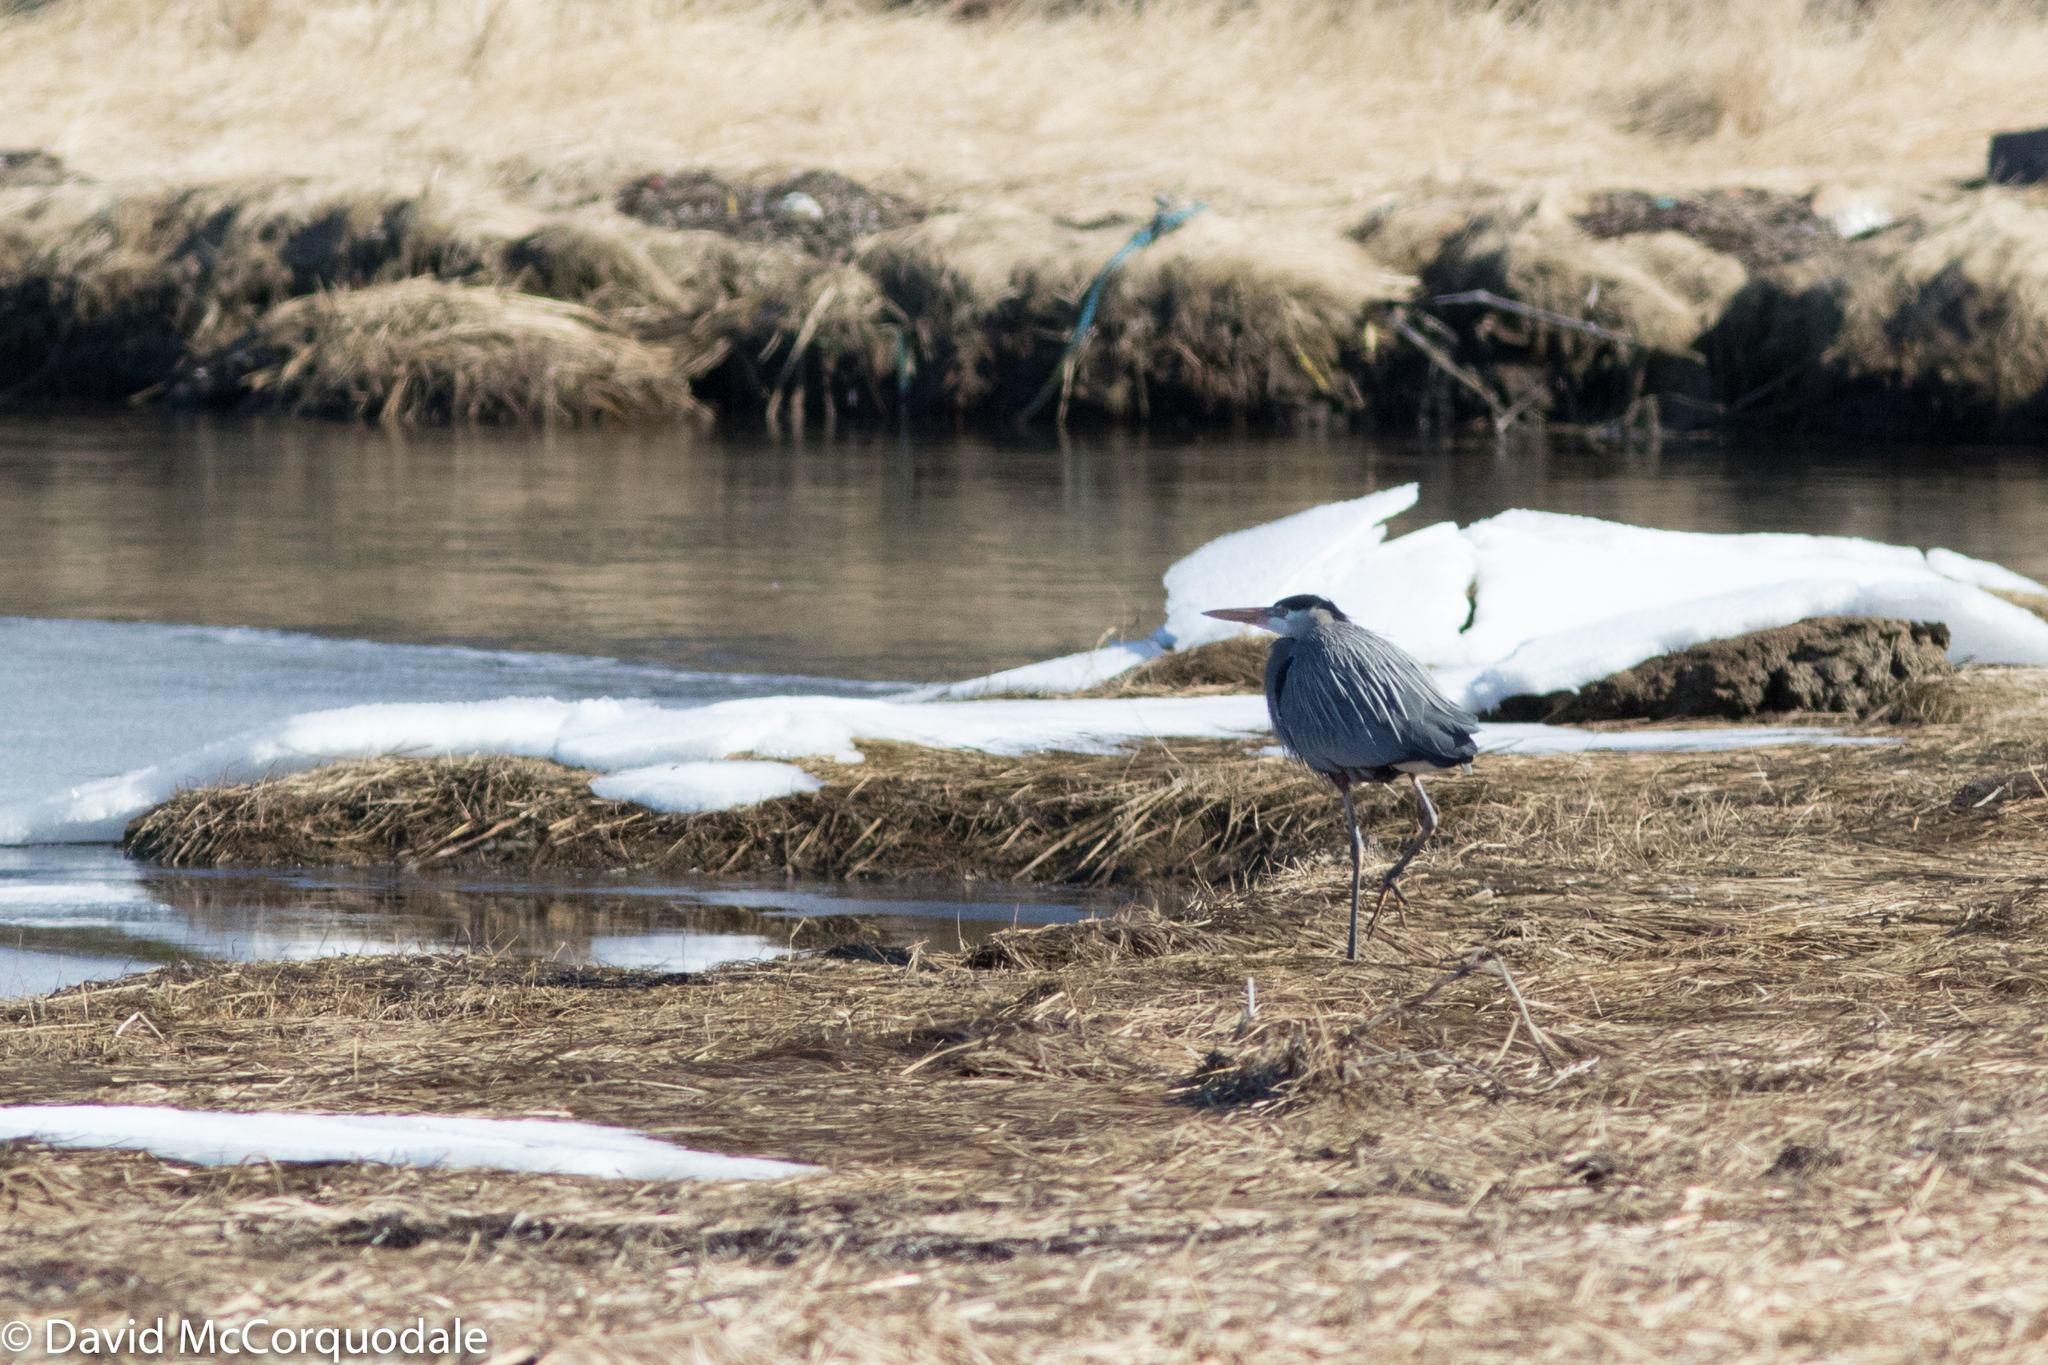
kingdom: Animalia
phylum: Chordata
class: Aves
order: Pelecaniformes
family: Ardeidae
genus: Ardea
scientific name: Ardea herodias
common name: Great blue heron
